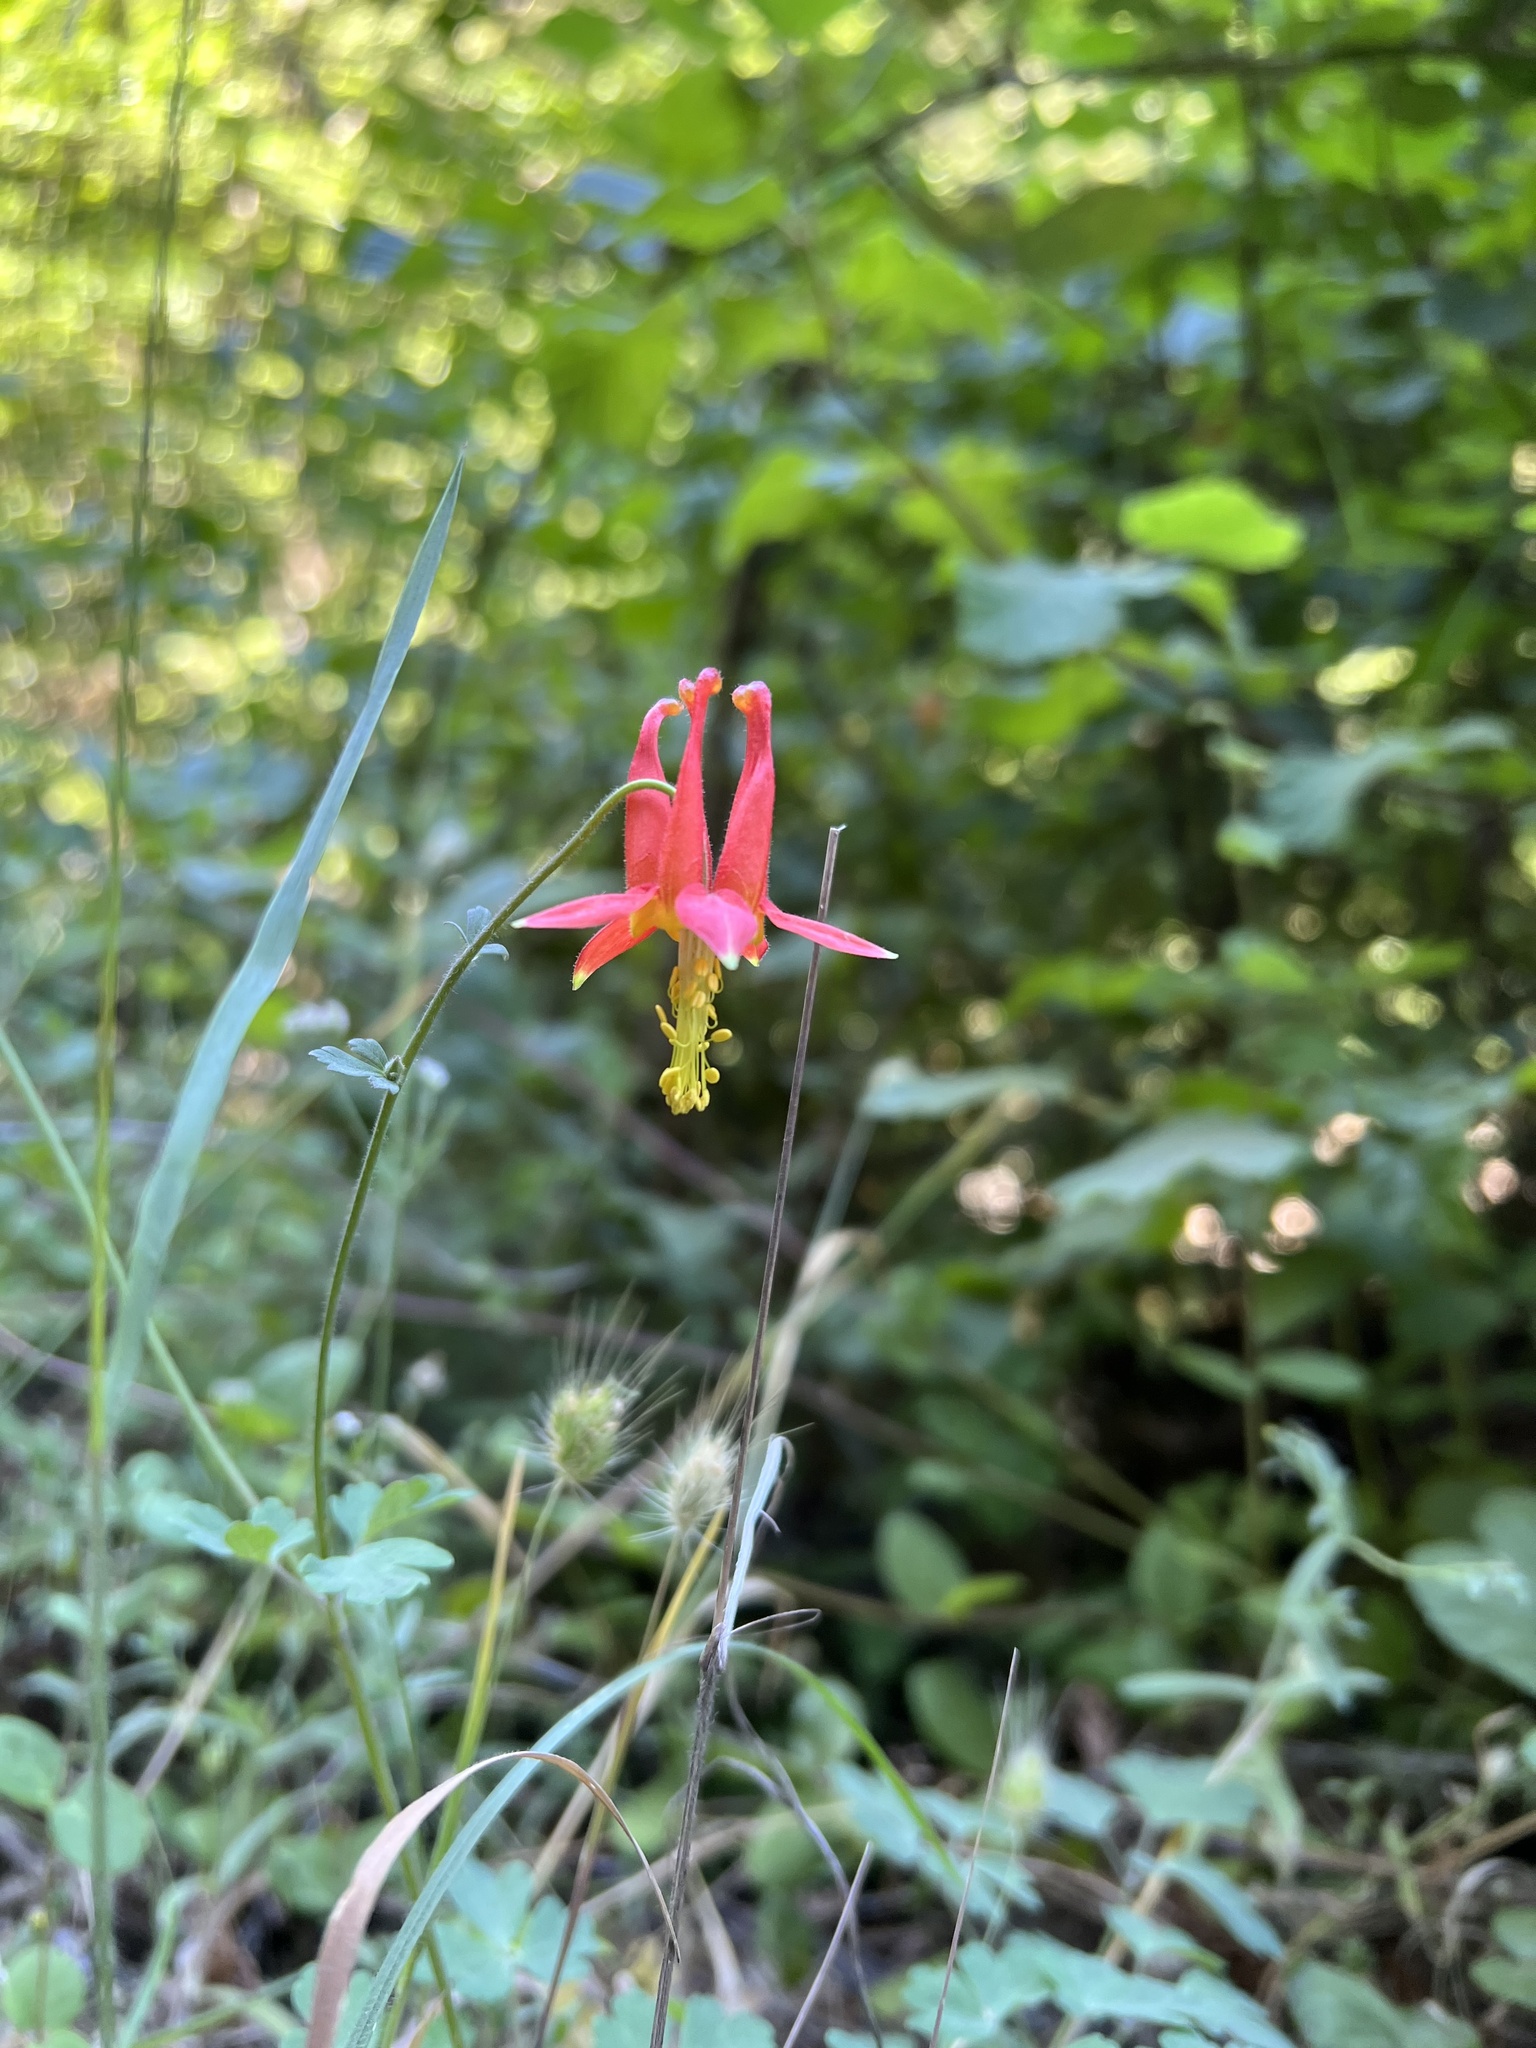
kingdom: Plantae
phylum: Tracheophyta
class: Magnoliopsida
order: Ranunculales
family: Ranunculaceae
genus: Aquilegia
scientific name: Aquilegia formosa
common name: Sitka columbine
